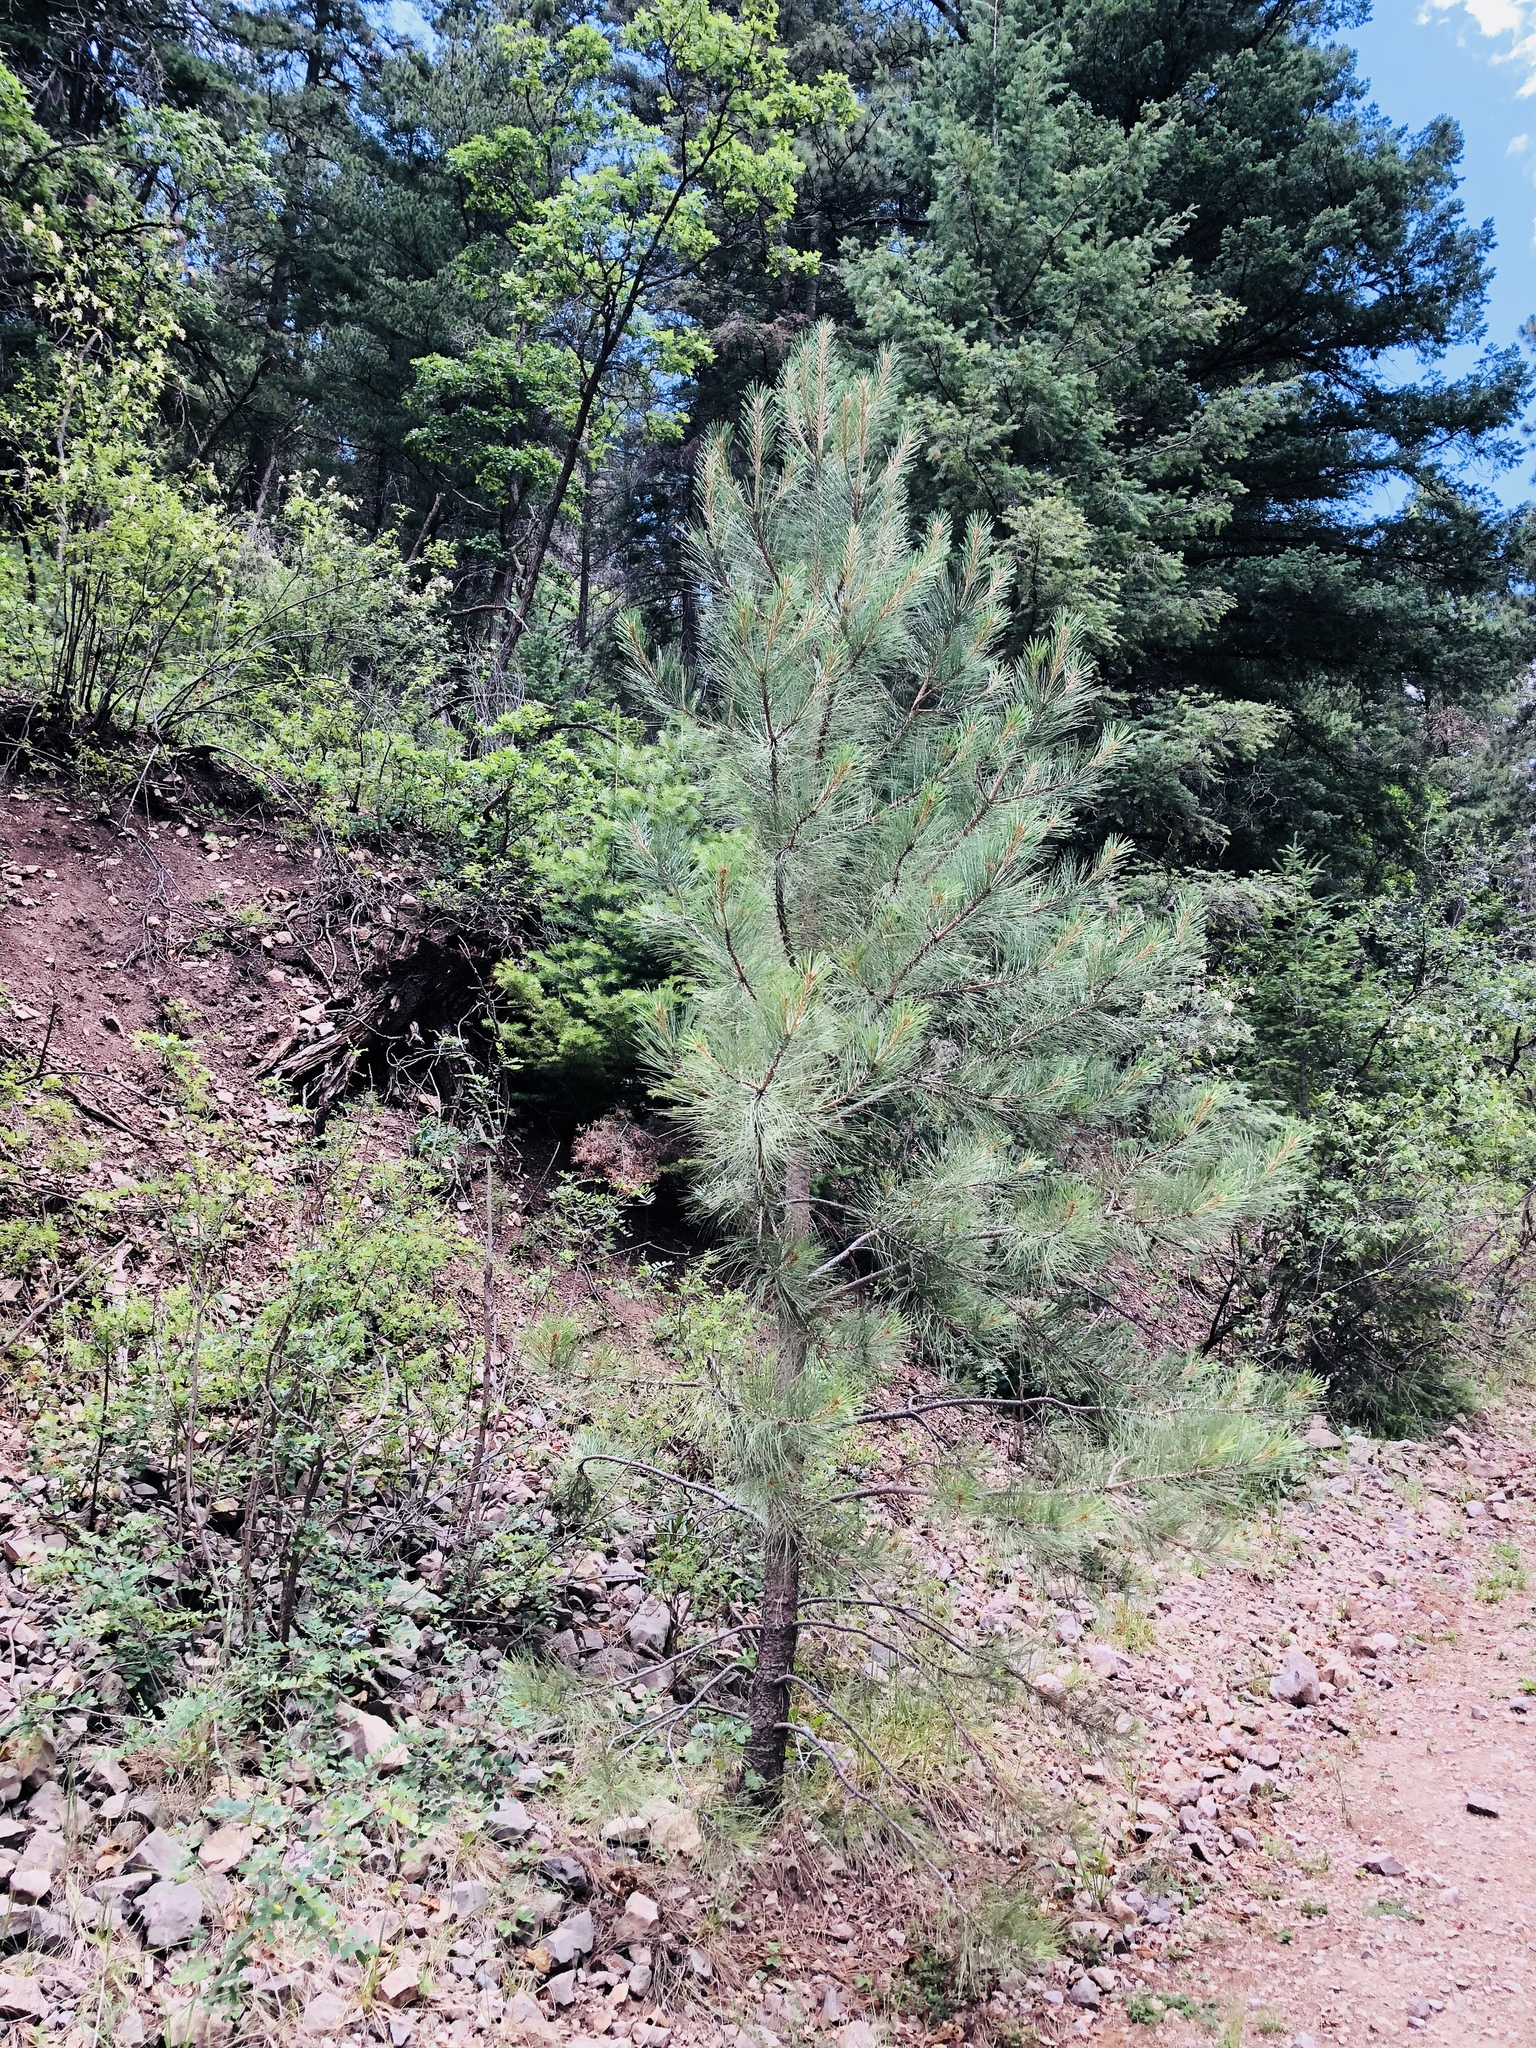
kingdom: Plantae
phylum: Tracheophyta
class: Pinopsida
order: Pinales
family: Pinaceae
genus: Pinus
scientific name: Pinus ponderosa
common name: Western yellow-pine
